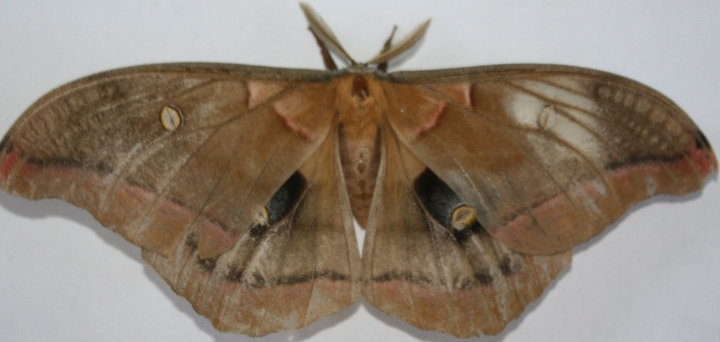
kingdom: Animalia
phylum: Arthropoda
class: Insecta
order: Lepidoptera
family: Saturniidae
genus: Antheraea
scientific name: Antheraea polyphemus
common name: Polyphemus moth
